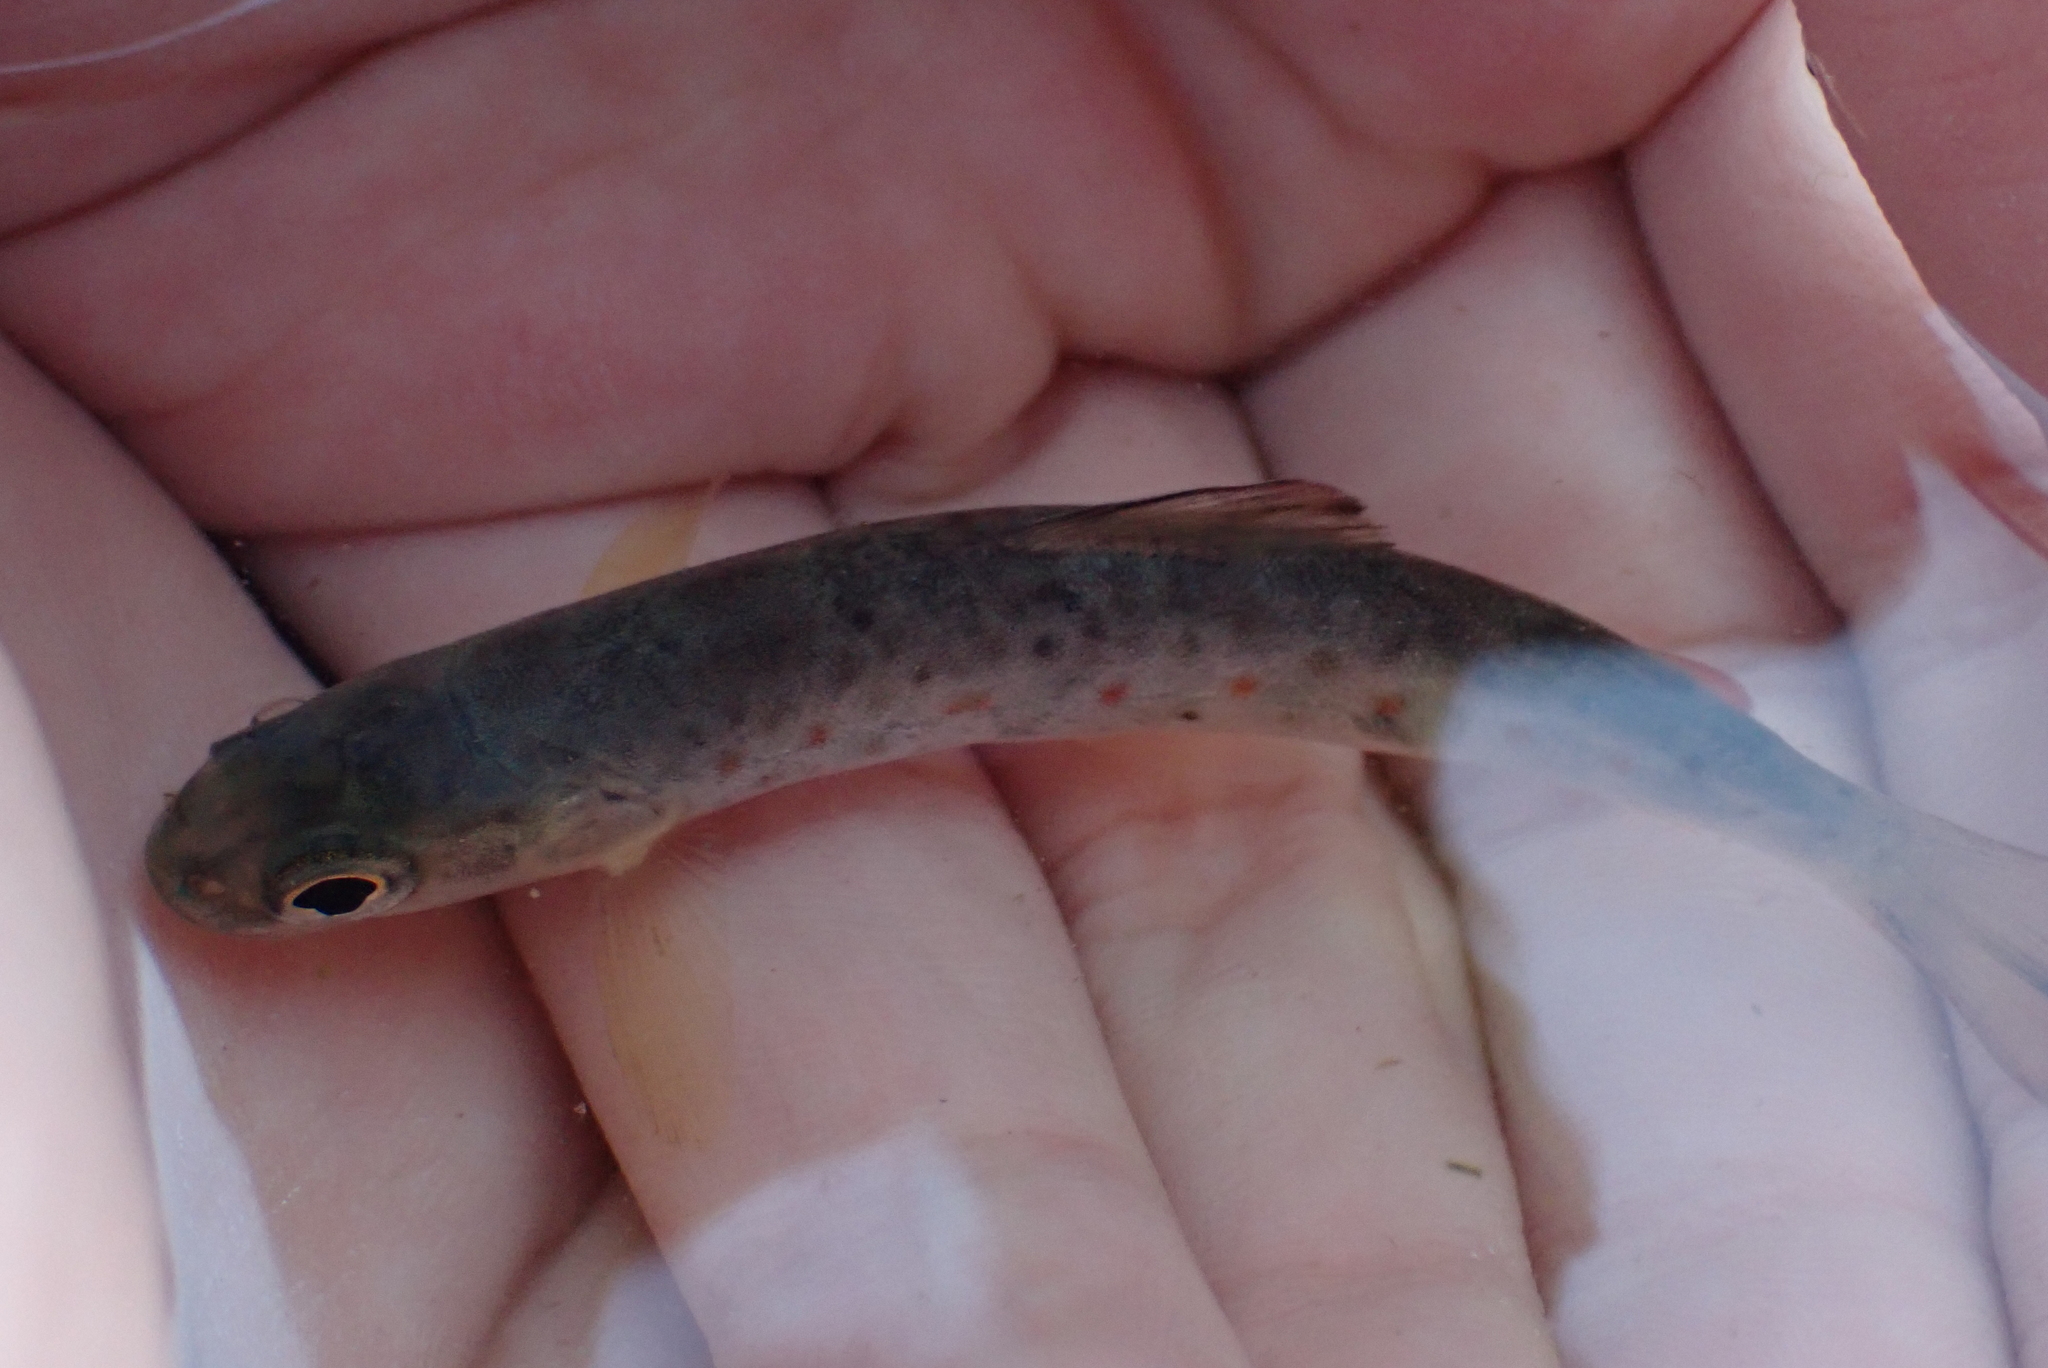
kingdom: Animalia
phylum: Chordata
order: Salmoniformes
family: Salmonidae
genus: Salmo
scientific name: Salmo trutta
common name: Brown trout
